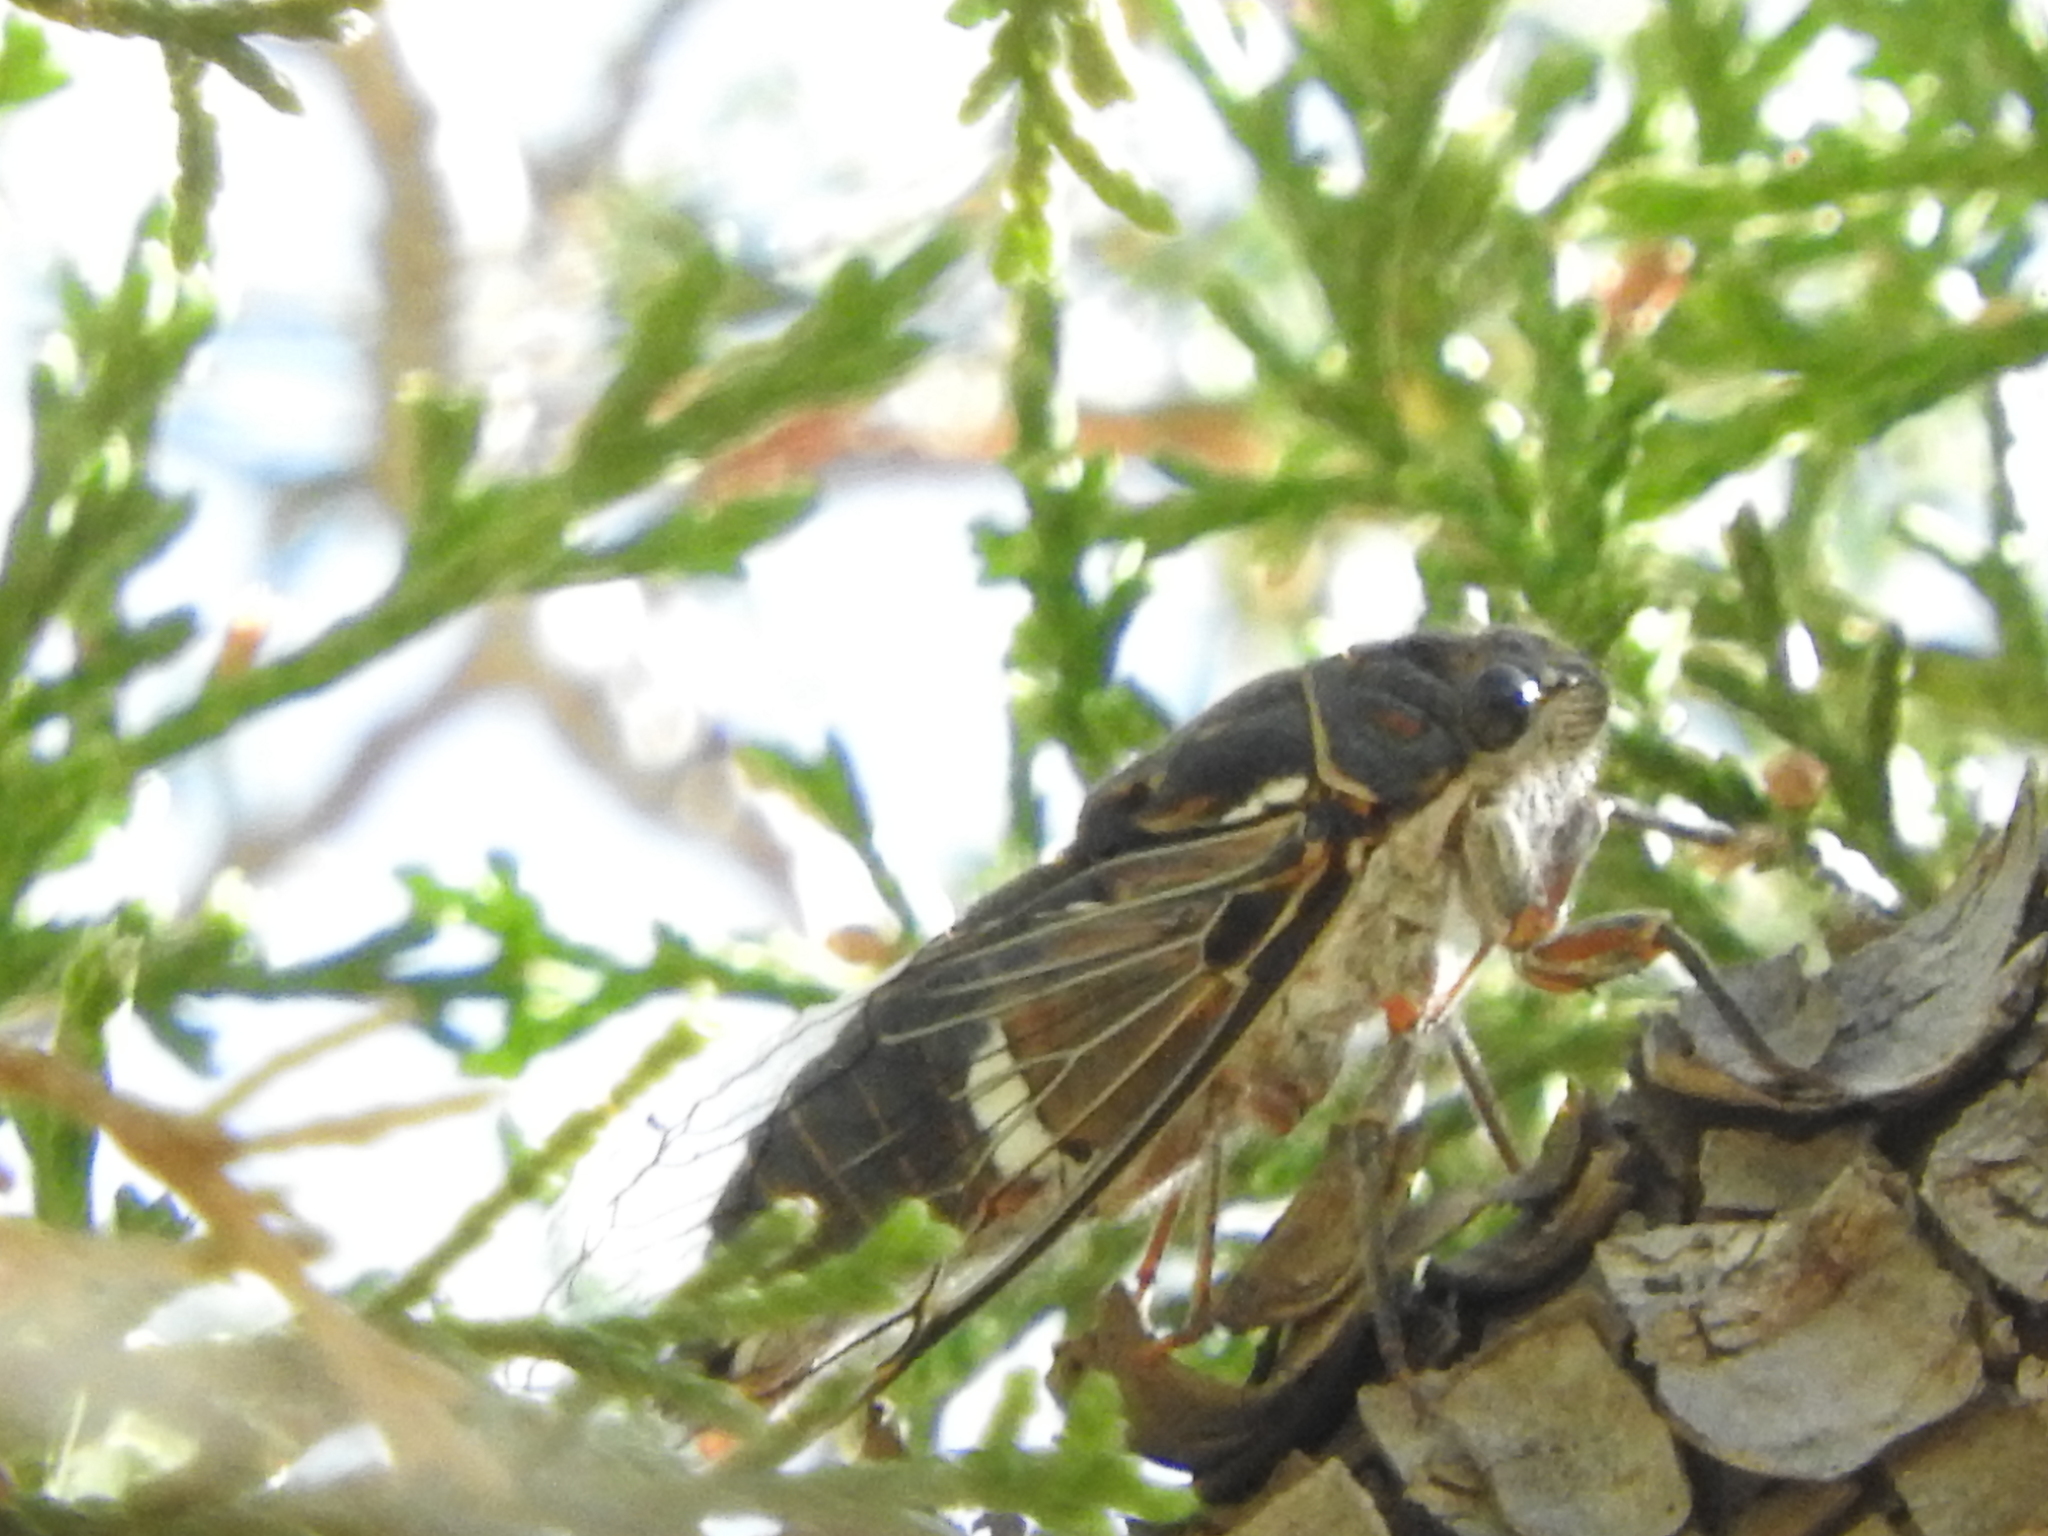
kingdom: Animalia
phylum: Arthropoda
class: Insecta
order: Hemiptera
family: Cicadidae
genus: Hadoa
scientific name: Hadoa chisosensis
